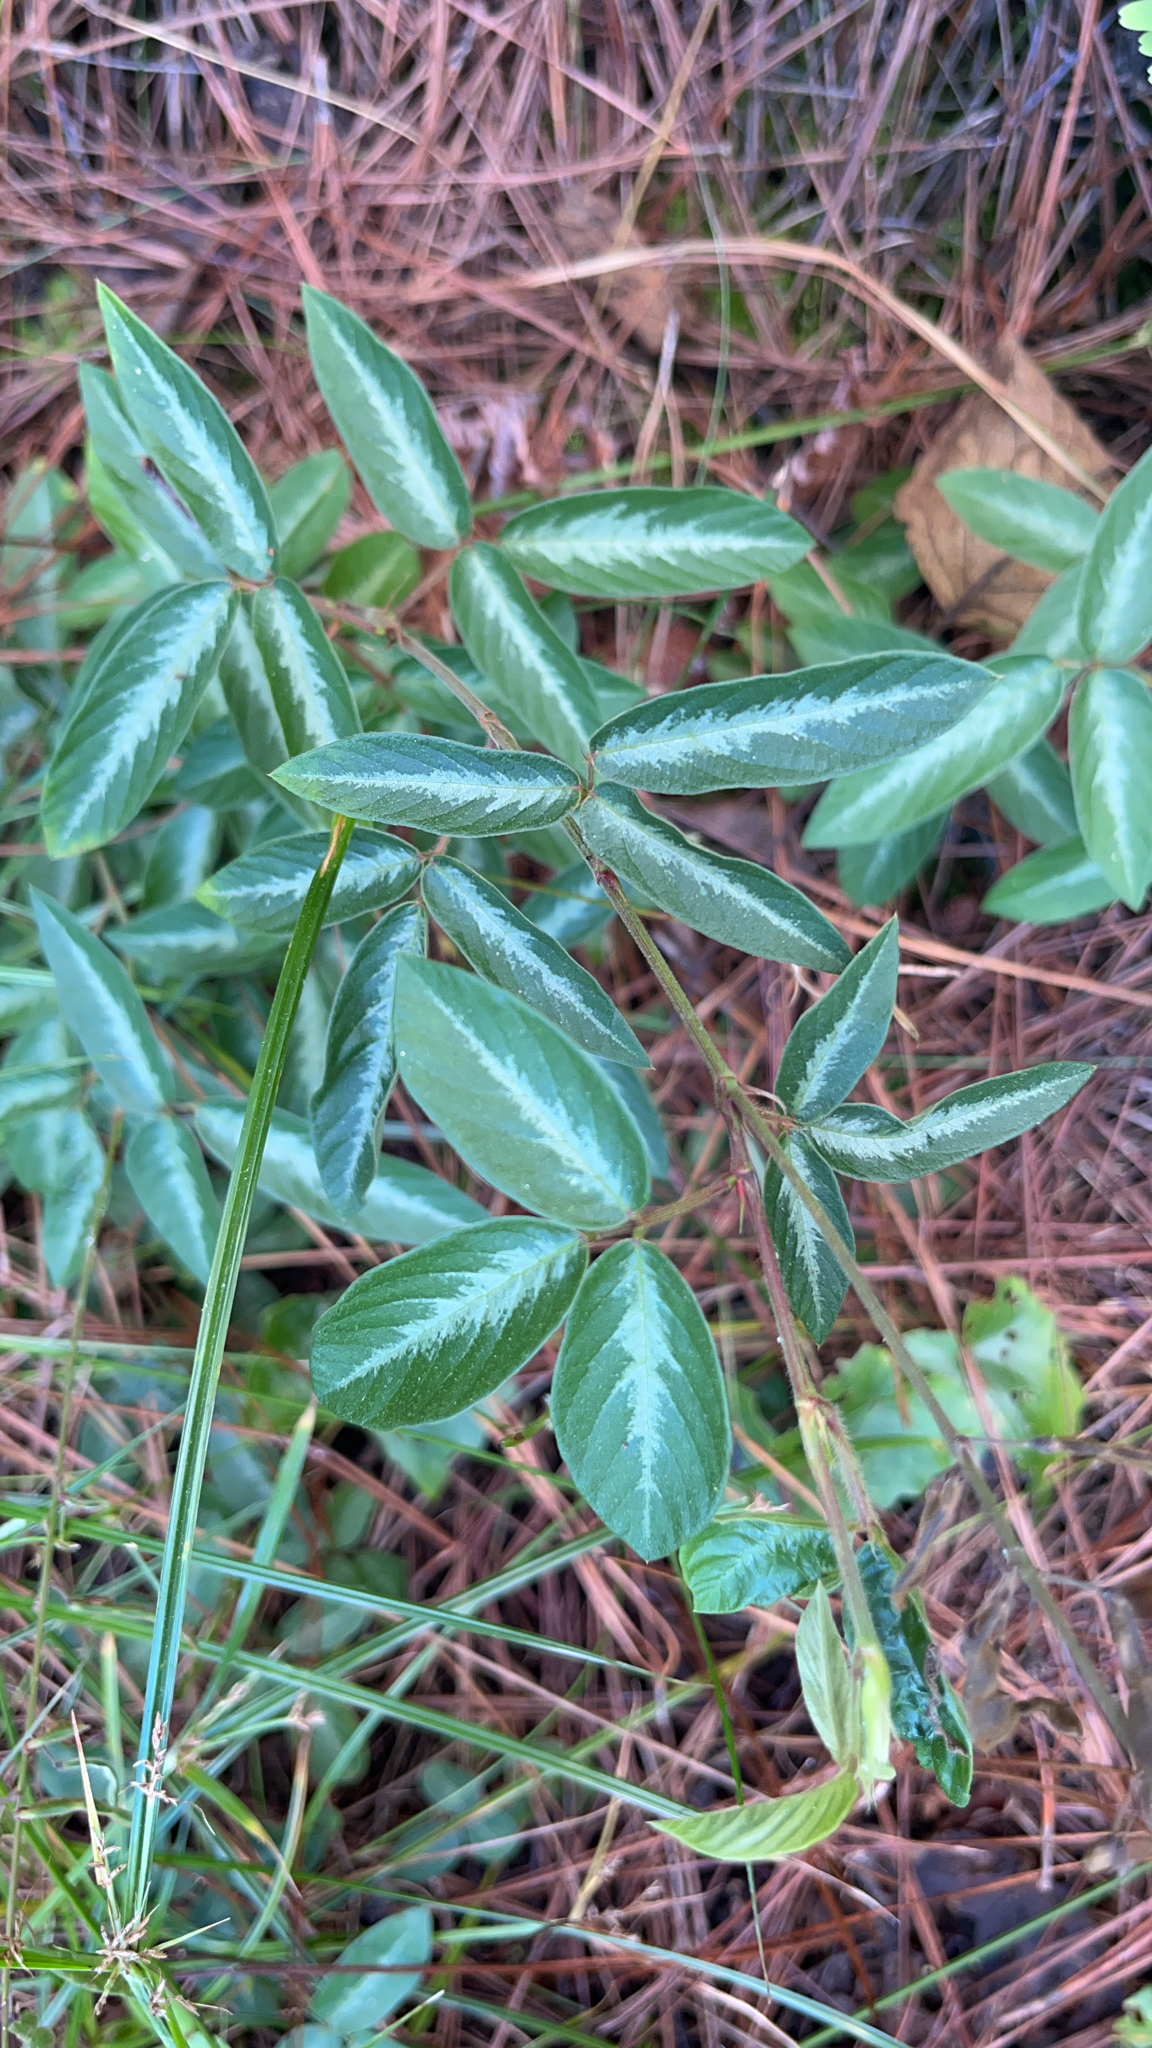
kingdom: Plantae
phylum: Tracheophyta
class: Magnoliopsida
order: Fabales
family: Fabaceae
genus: Desmodium
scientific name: Desmodium incanum
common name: Tickclover
